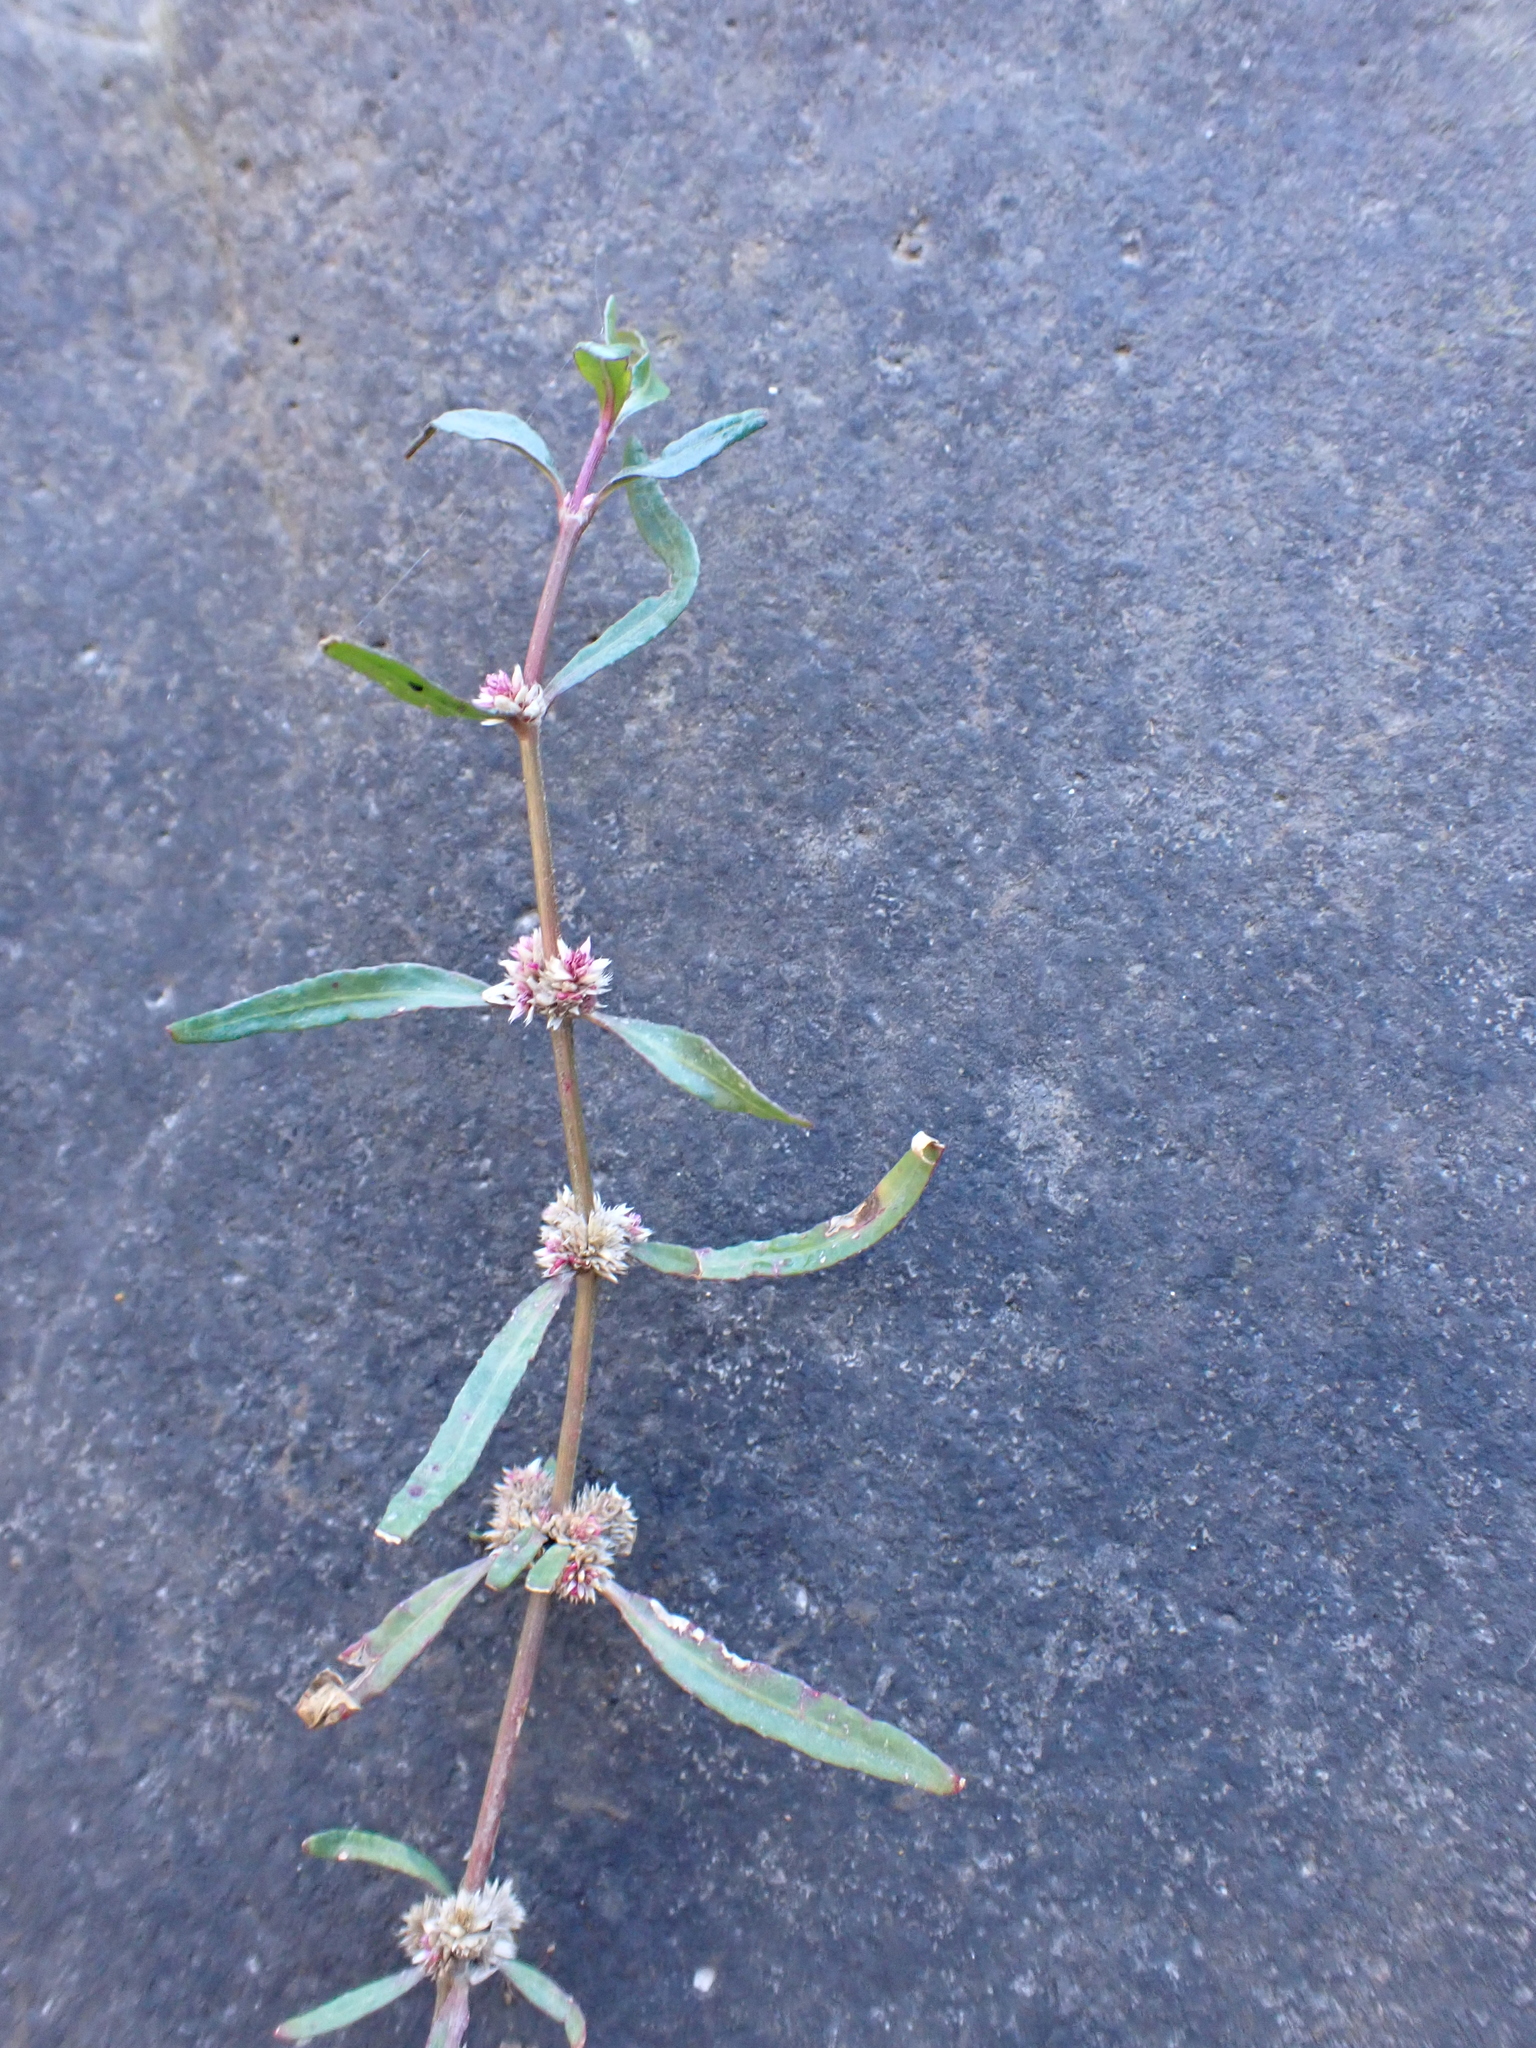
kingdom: Plantae
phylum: Tracheophyta
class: Magnoliopsida
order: Caryophyllales
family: Amaranthaceae
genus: Alternanthera
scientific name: Alternanthera denticulata
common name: Lesser joyweed
